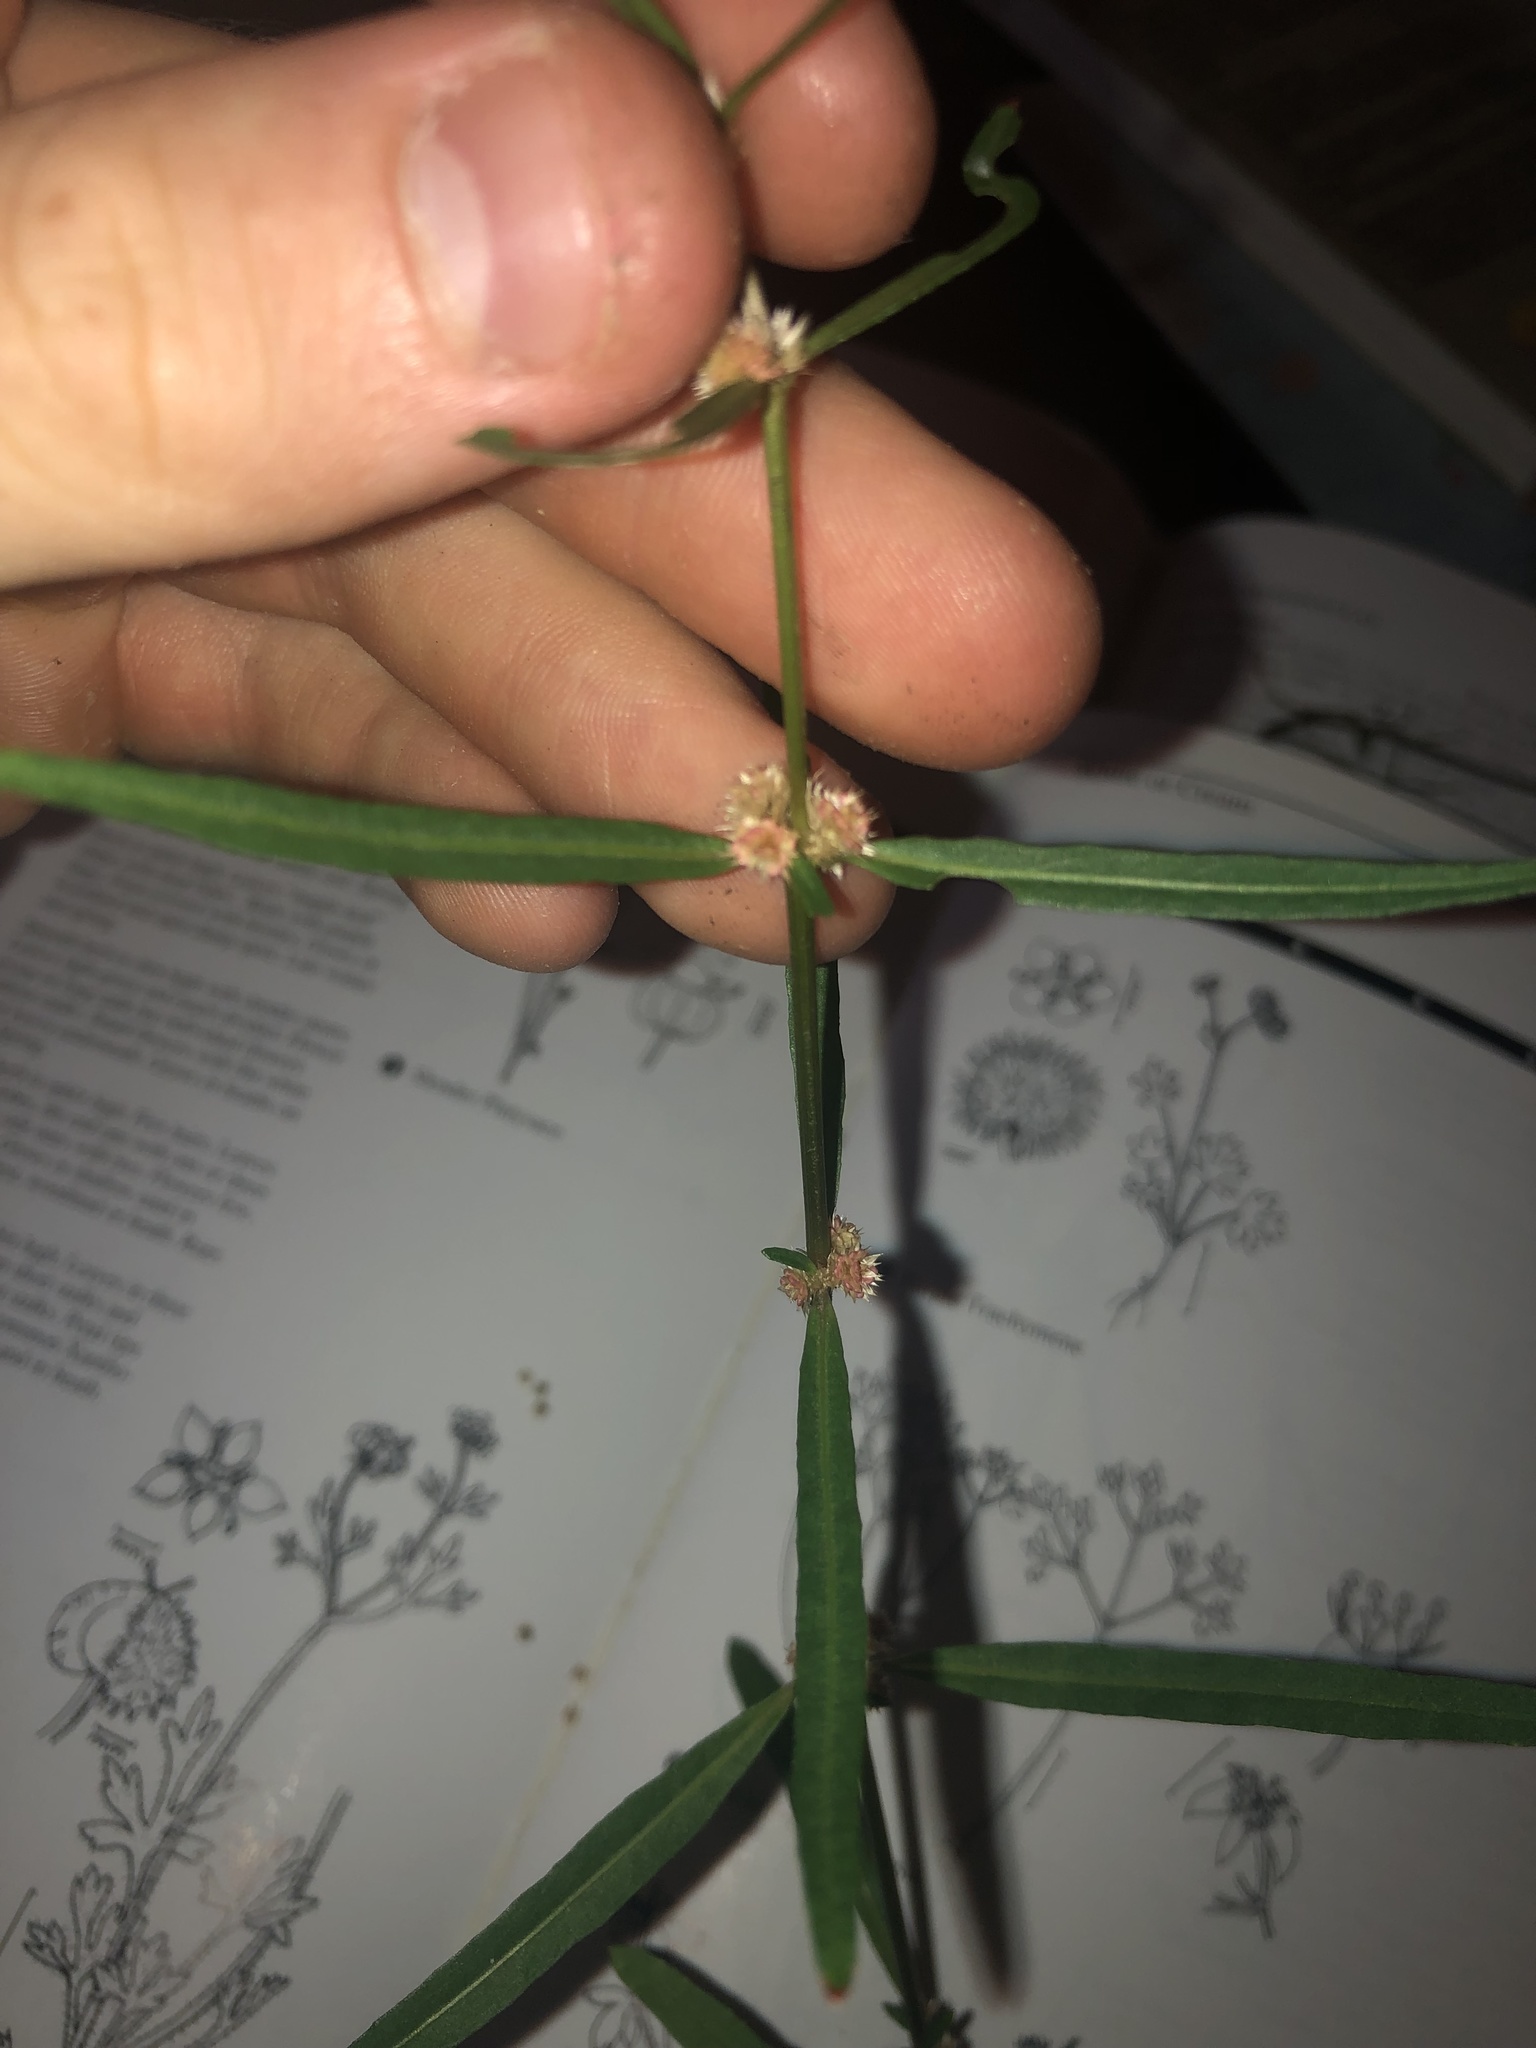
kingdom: Plantae
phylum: Tracheophyta
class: Magnoliopsida
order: Caryophyllales
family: Amaranthaceae
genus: Alternanthera
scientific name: Alternanthera denticulata
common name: Lesser joyweed
